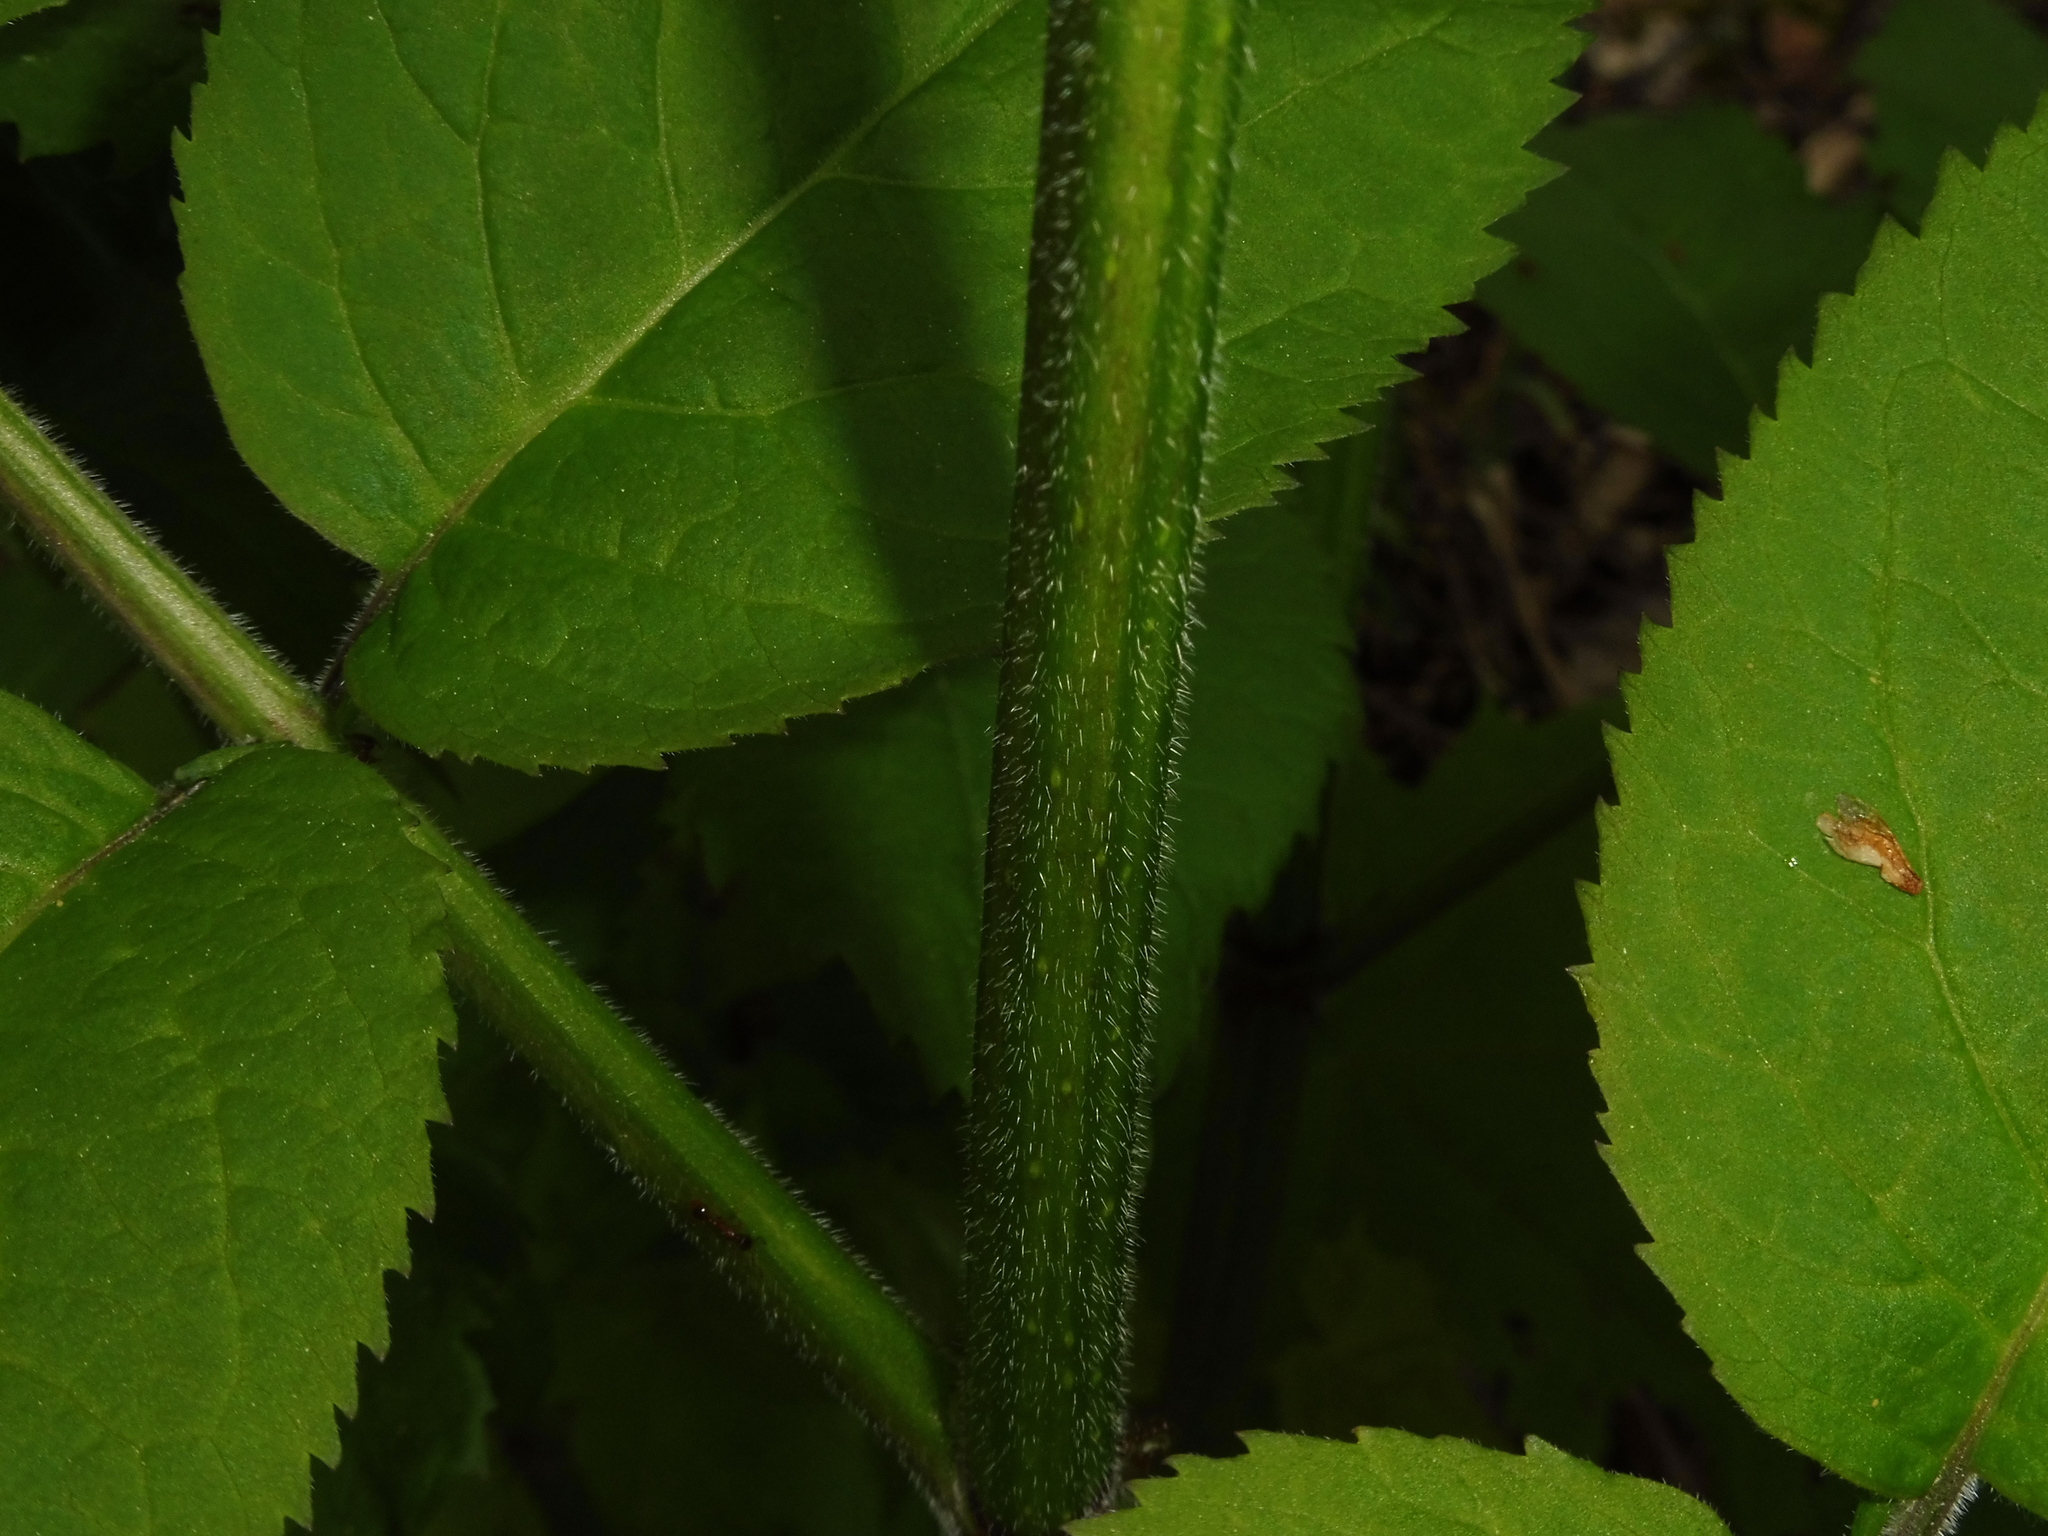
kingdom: Plantae
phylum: Tracheophyta
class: Magnoliopsida
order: Dipsacales
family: Viburnaceae
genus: Sambucus
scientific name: Sambucus racemosa
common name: Red-berried elder
